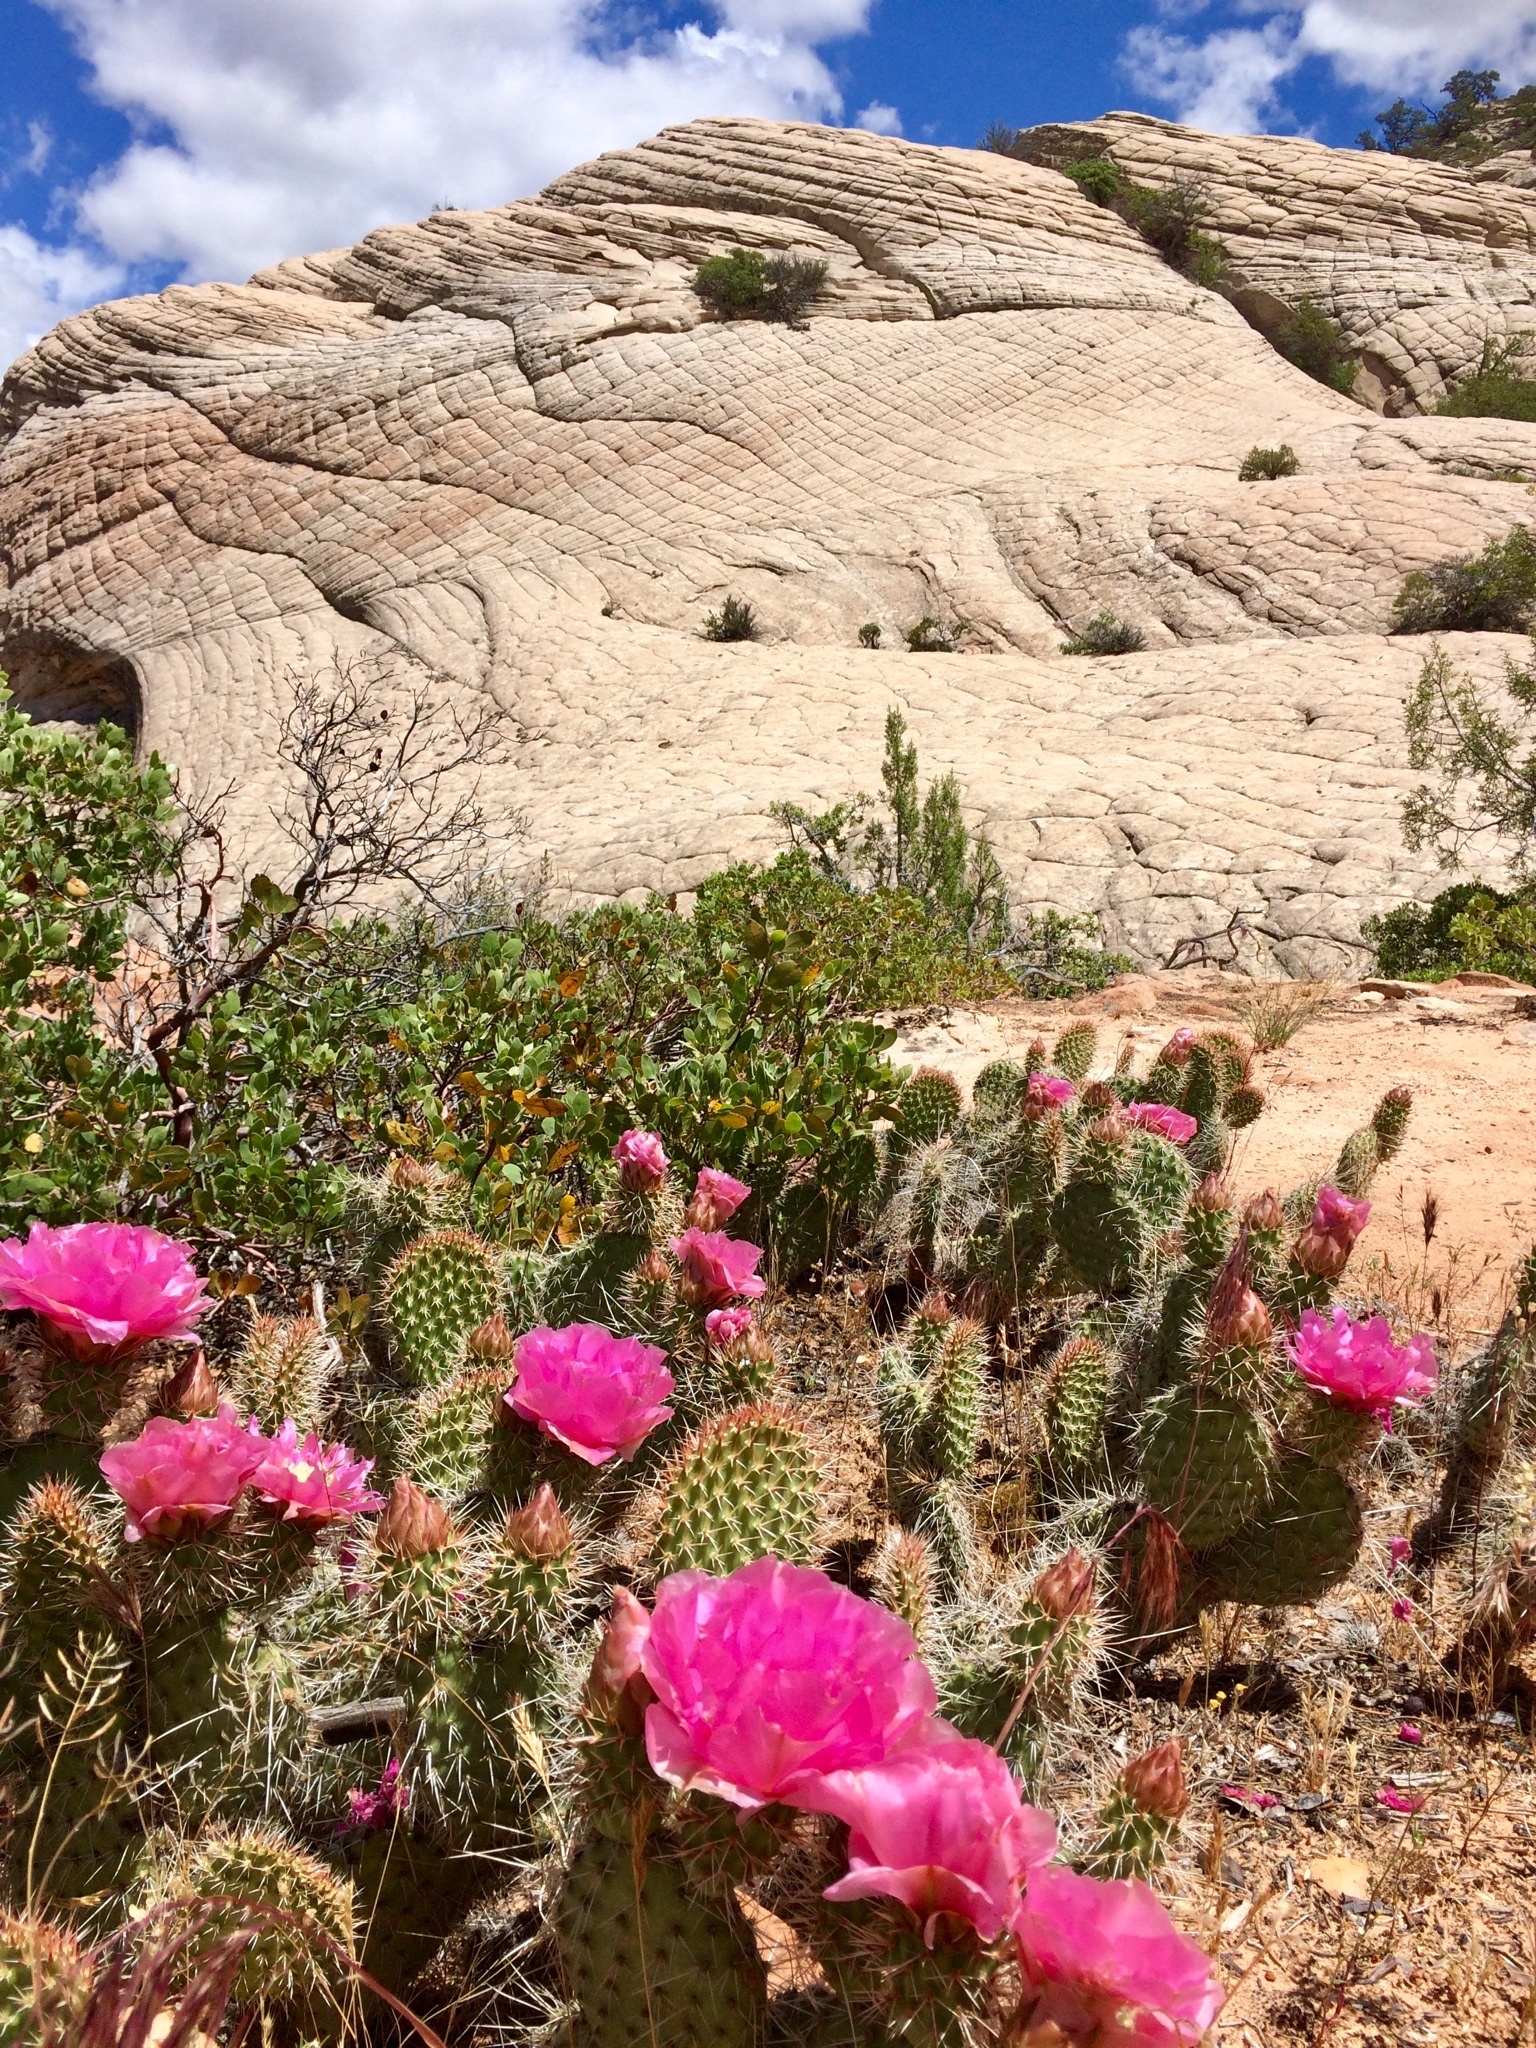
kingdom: Plantae
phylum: Tracheophyta
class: Magnoliopsida
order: Caryophyllales
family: Cactaceae
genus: Opuntia
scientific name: Opuntia polyacantha
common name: Plains prickly-pear
